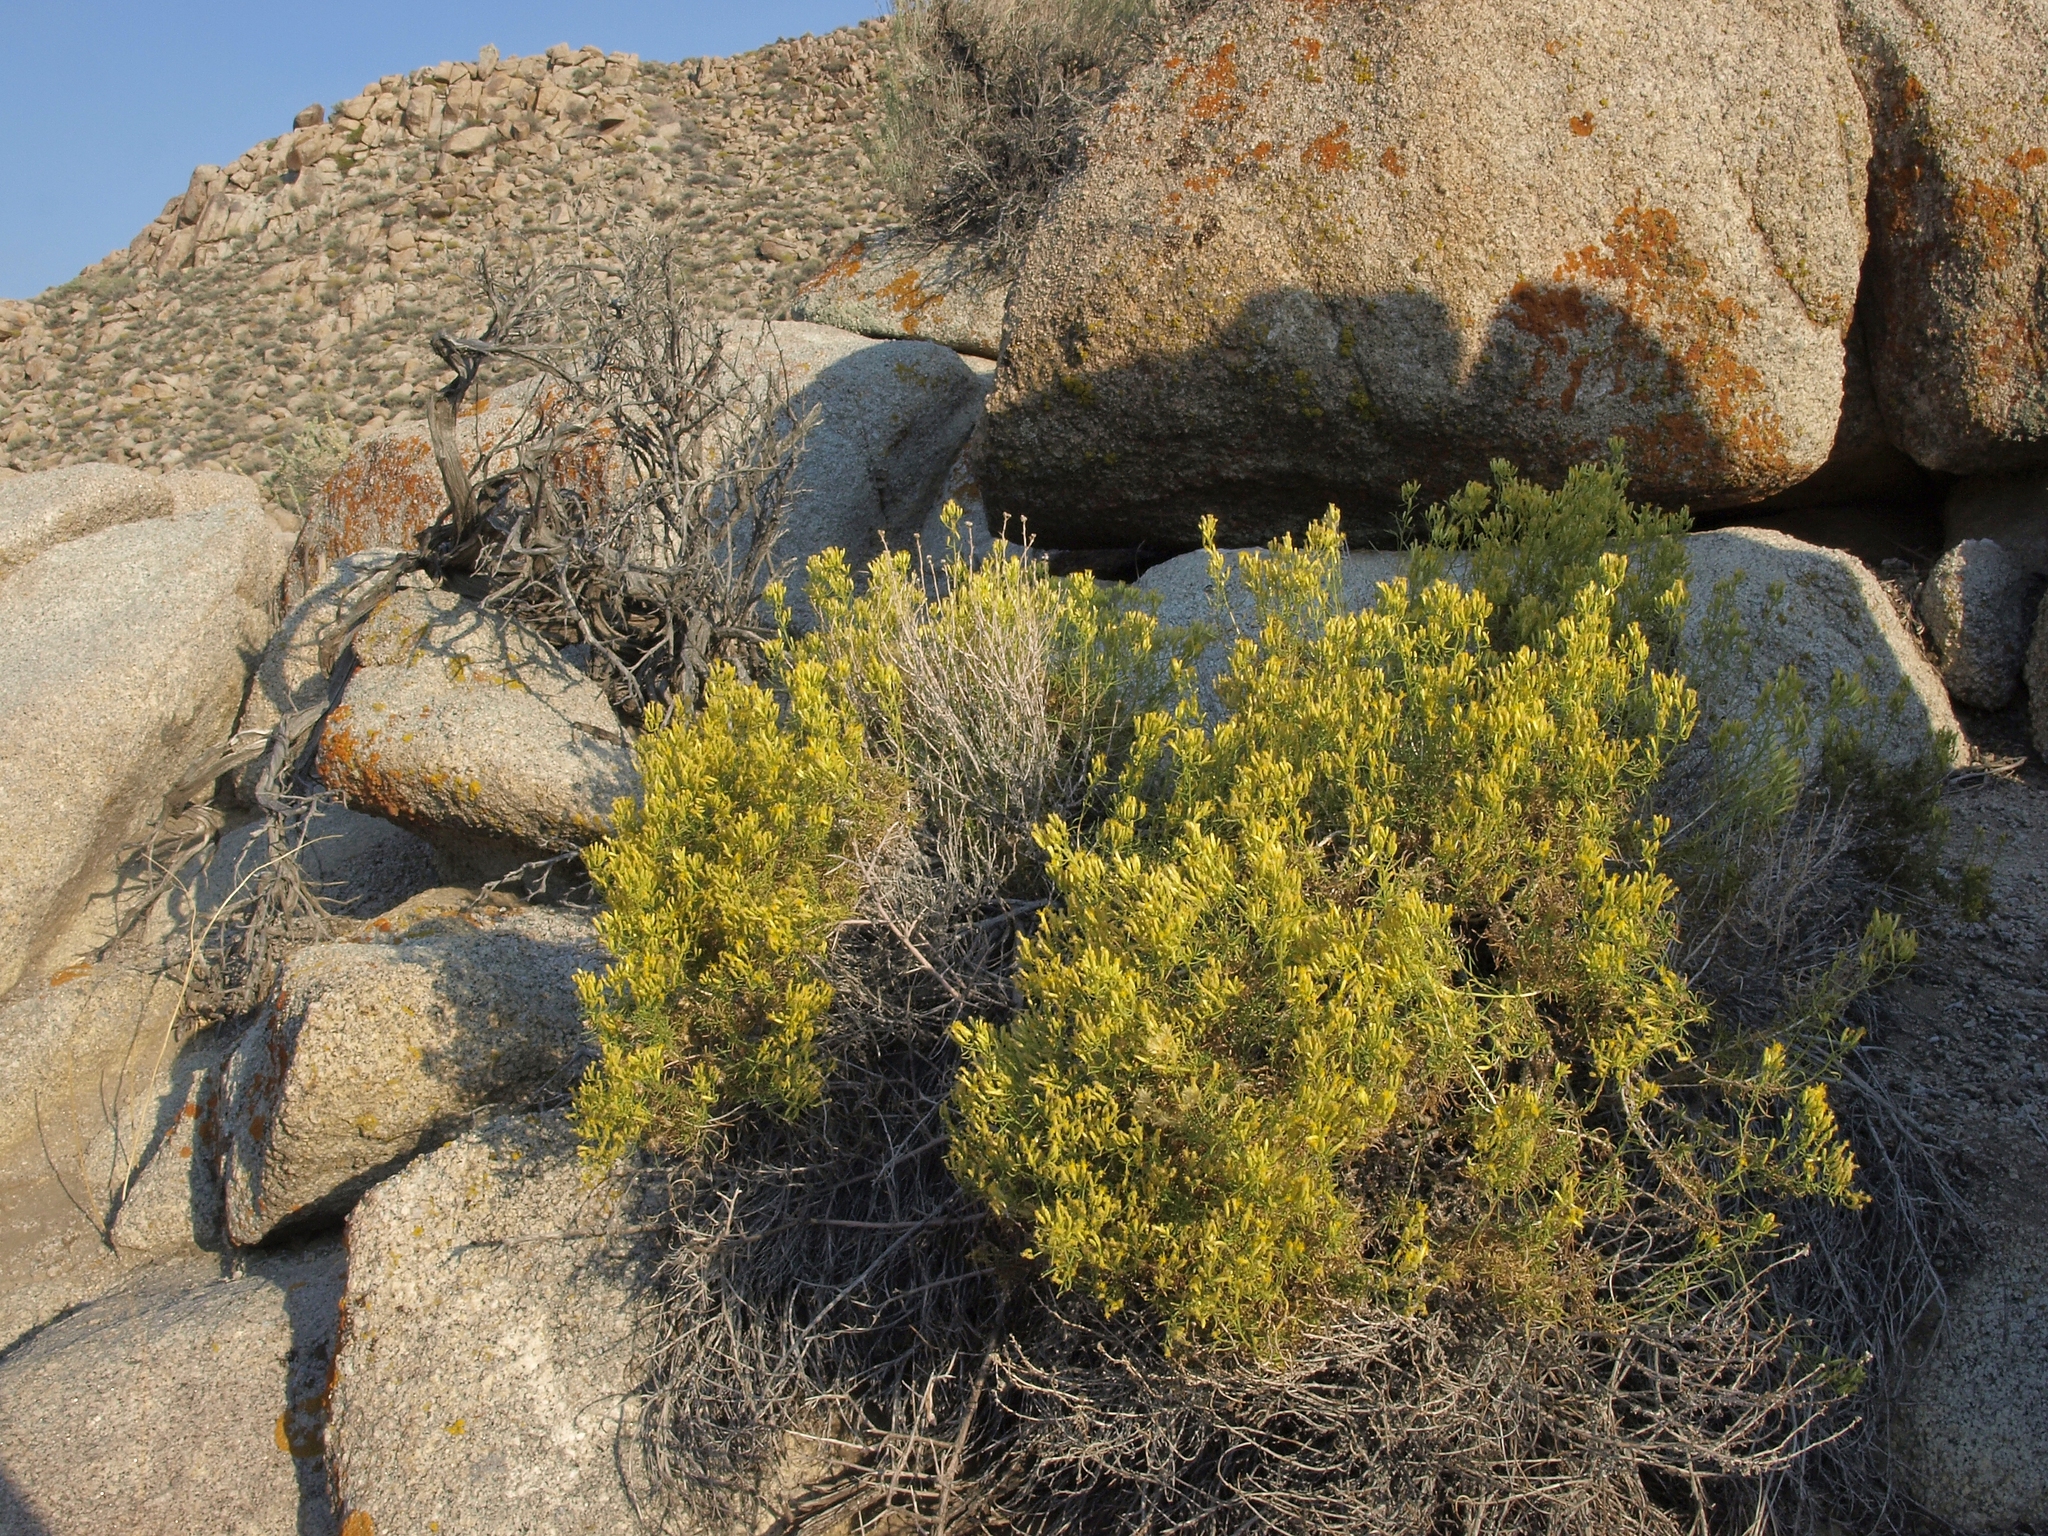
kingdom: Plantae
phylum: Tracheophyta
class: Magnoliopsida
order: Asterales
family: Asteraceae
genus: Chrysothamnus
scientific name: Chrysothamnus viscidiflorus
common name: Yellow rabbitbrush
